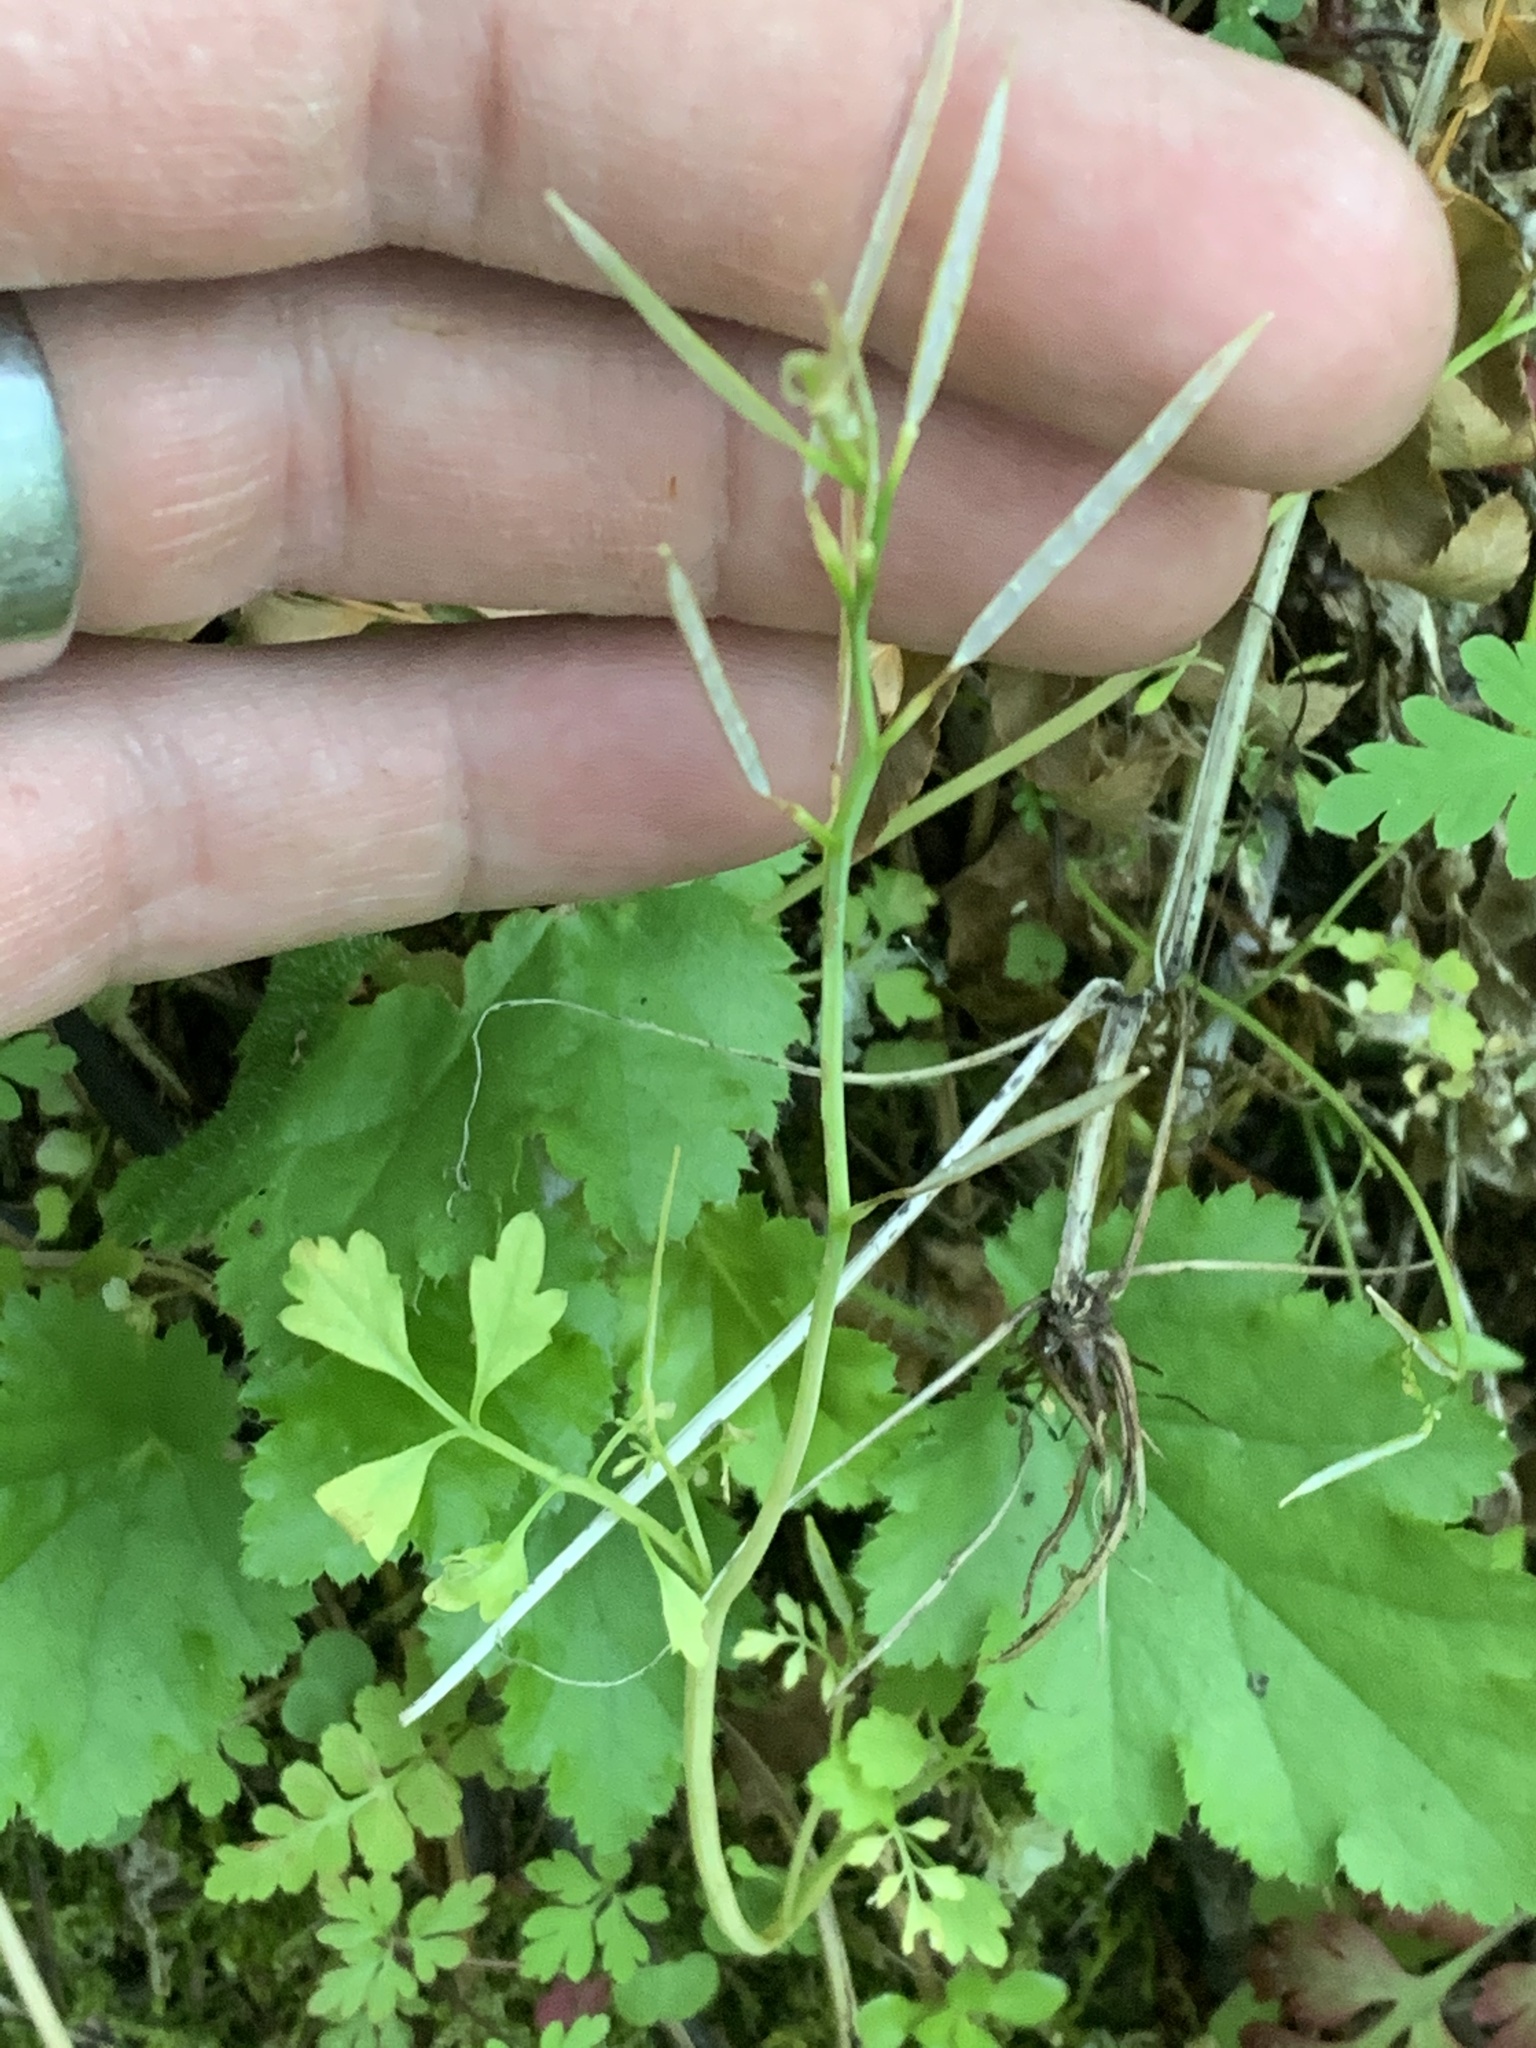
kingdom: Plantae
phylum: Tracheophyta
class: Magnoliopsida
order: Brassicales
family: Brassicaceae
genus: Cardamine
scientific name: Cardamine oligosperma
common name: Idaho bittercress
